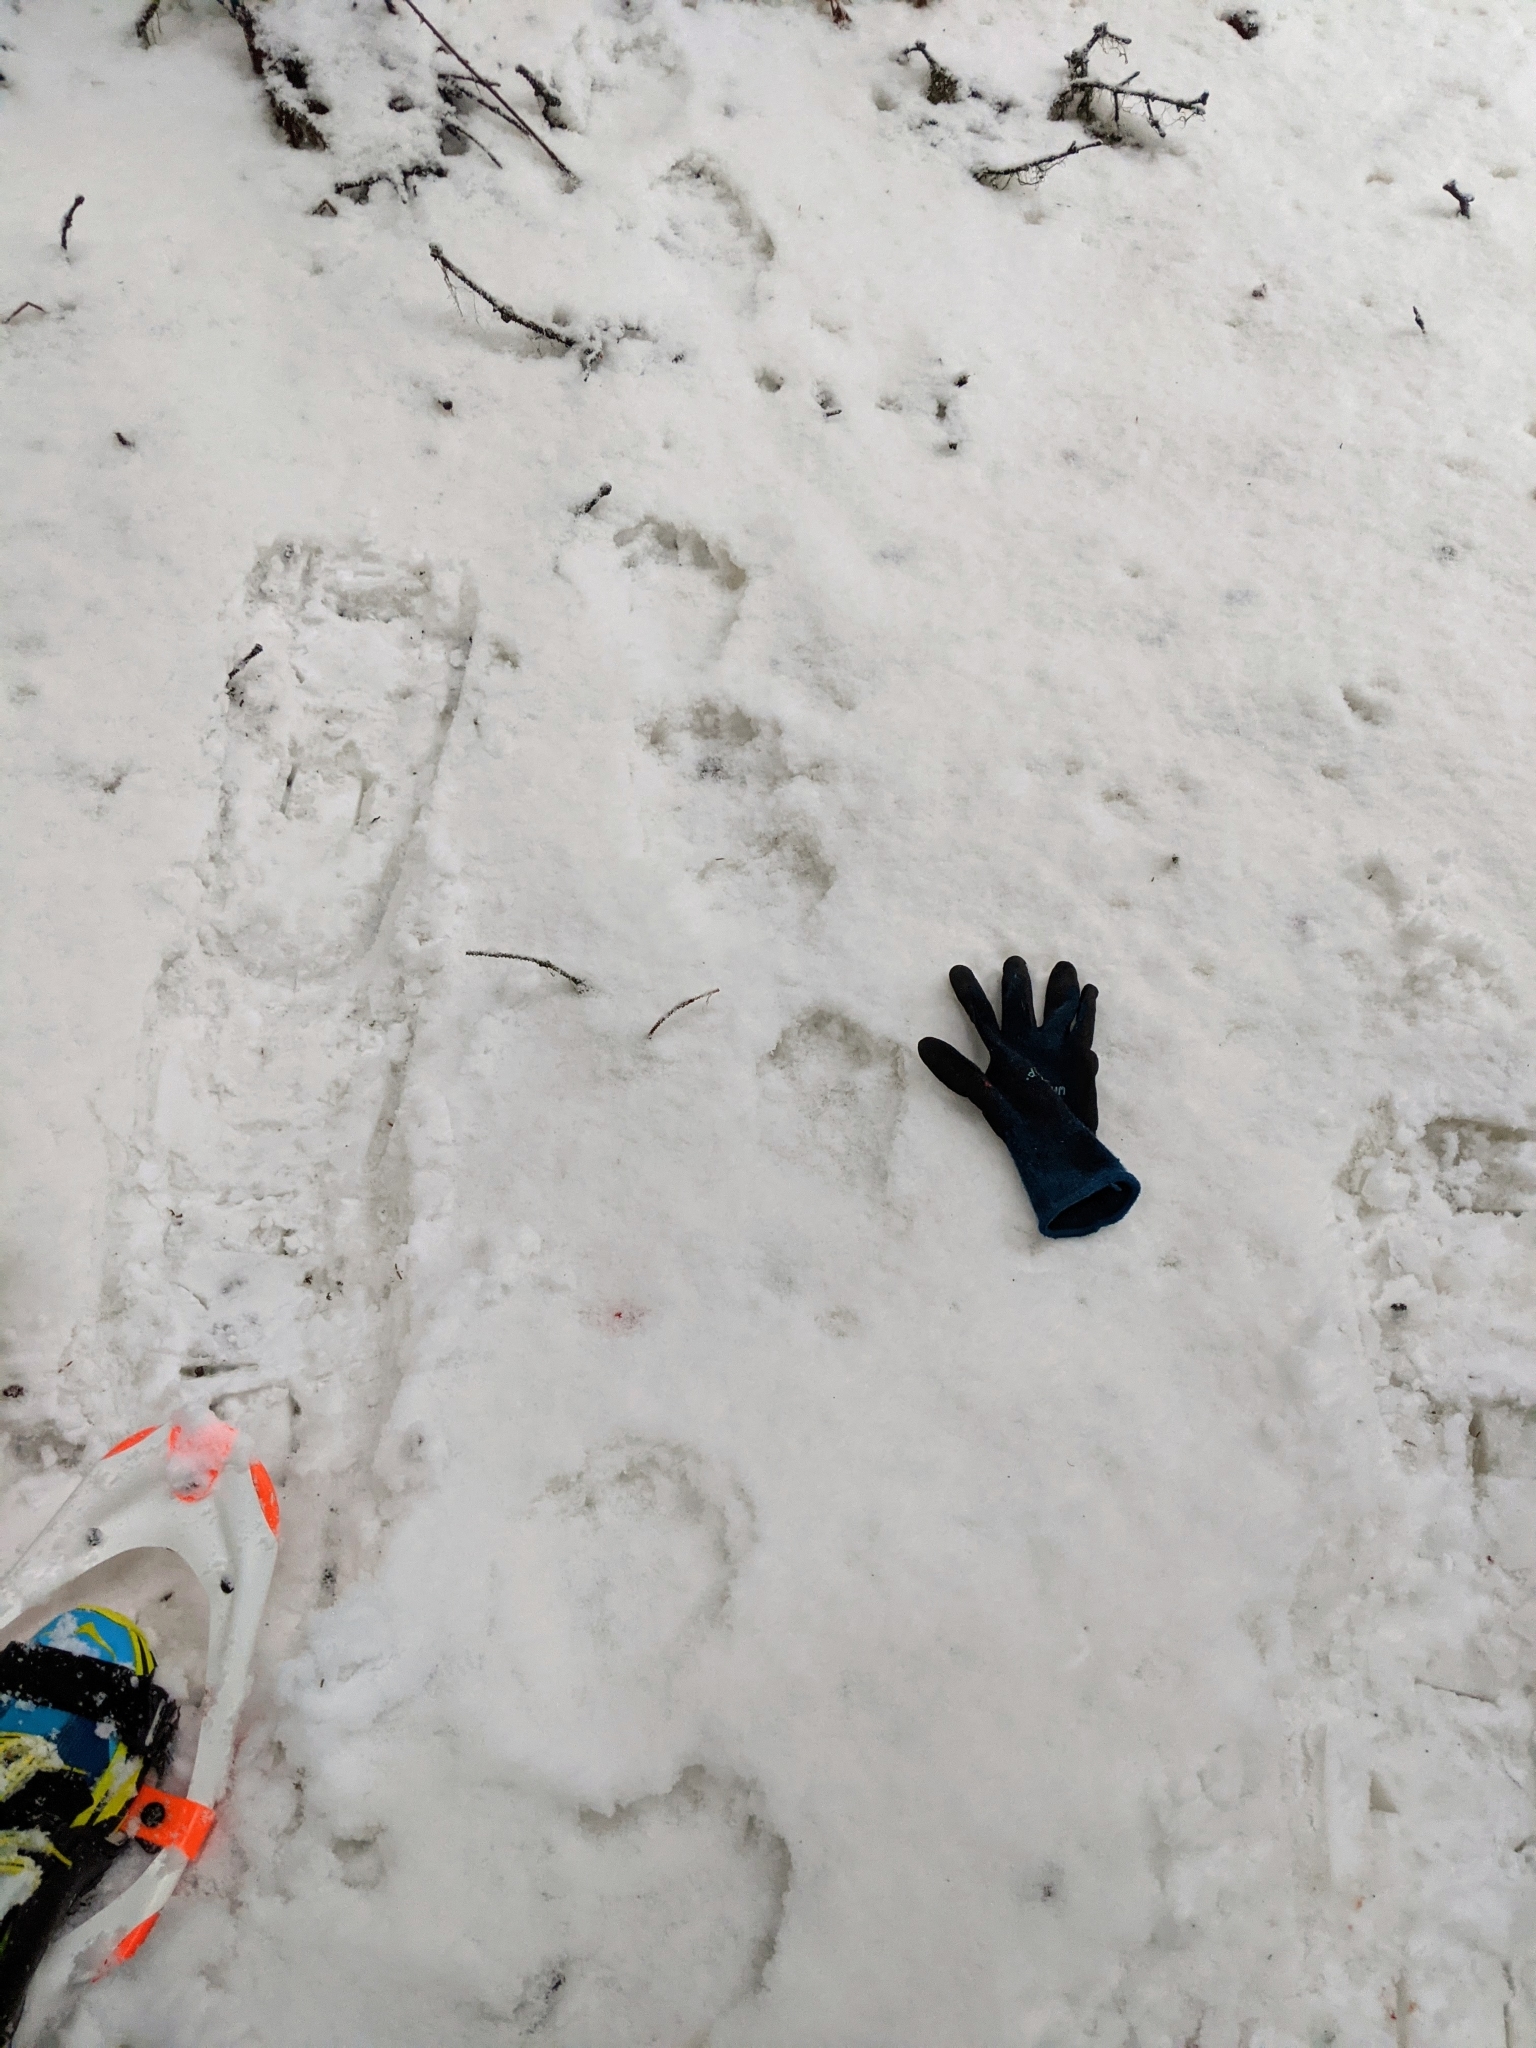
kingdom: Animalia
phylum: Chordata
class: Mammalia
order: Carnivora
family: Mustelidae
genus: Gulo
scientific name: Gulo gulo
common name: Wolverine
